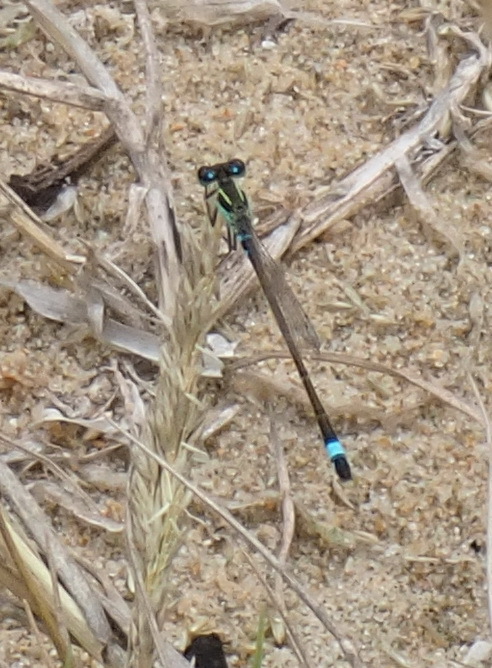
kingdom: Animalia
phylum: Arthropoda
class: Insecta
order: Odonata
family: Coenagrionidae
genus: Ischnura
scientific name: Ischnura senegalensis
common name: Tropical bluetail
